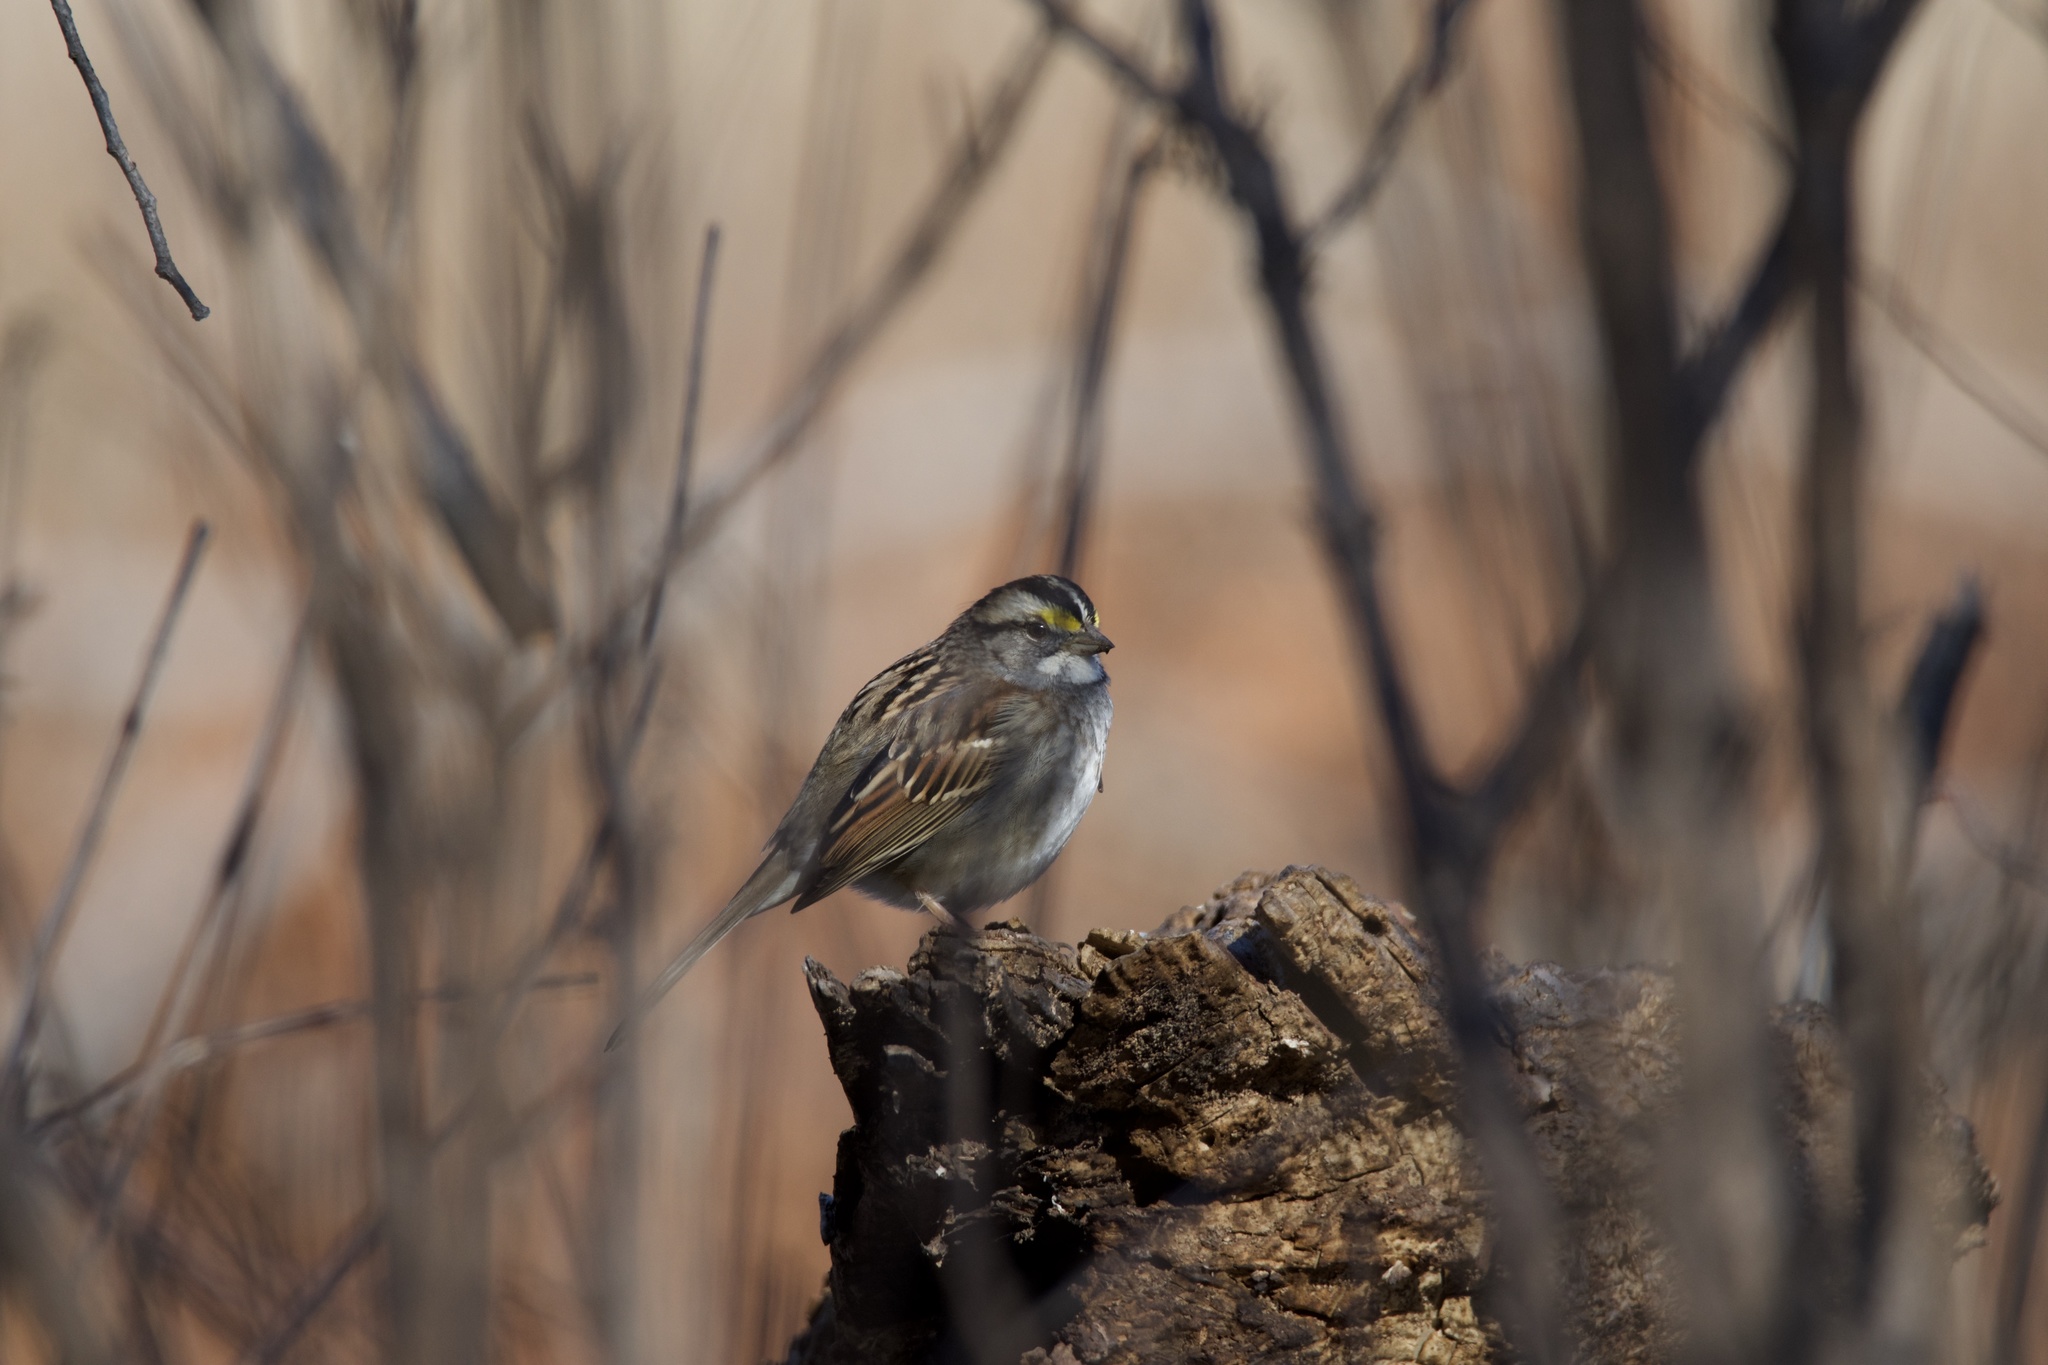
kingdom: Animalia
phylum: Chordata
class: Aves
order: Passeriformes
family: Passerellidae
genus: Zonotrichia
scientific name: Zonotrichia albicollis
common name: White-throated sparrow
